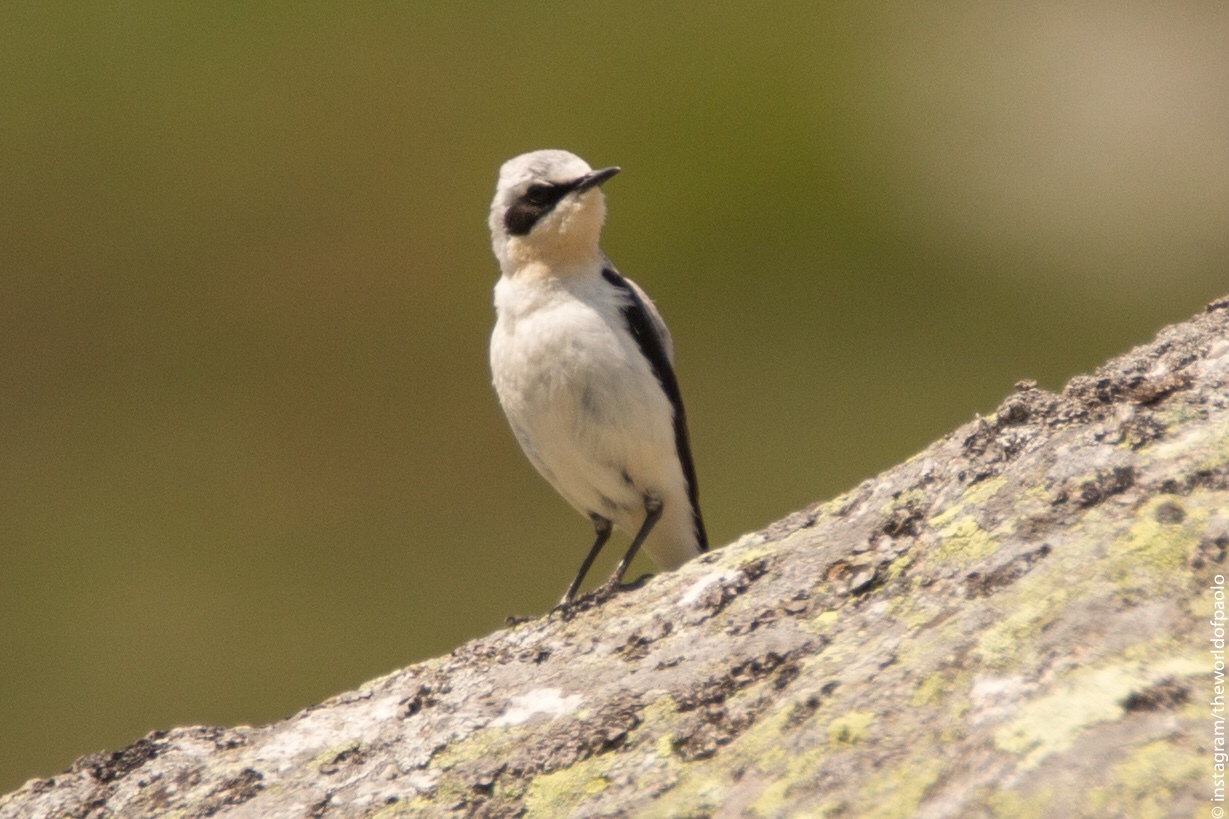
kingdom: Animalia
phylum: Chordata
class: Aves
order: Passeriformes
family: Muscicapidae
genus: Oenanthe
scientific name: Oenanthe oenanthe
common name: Northern wheatear
